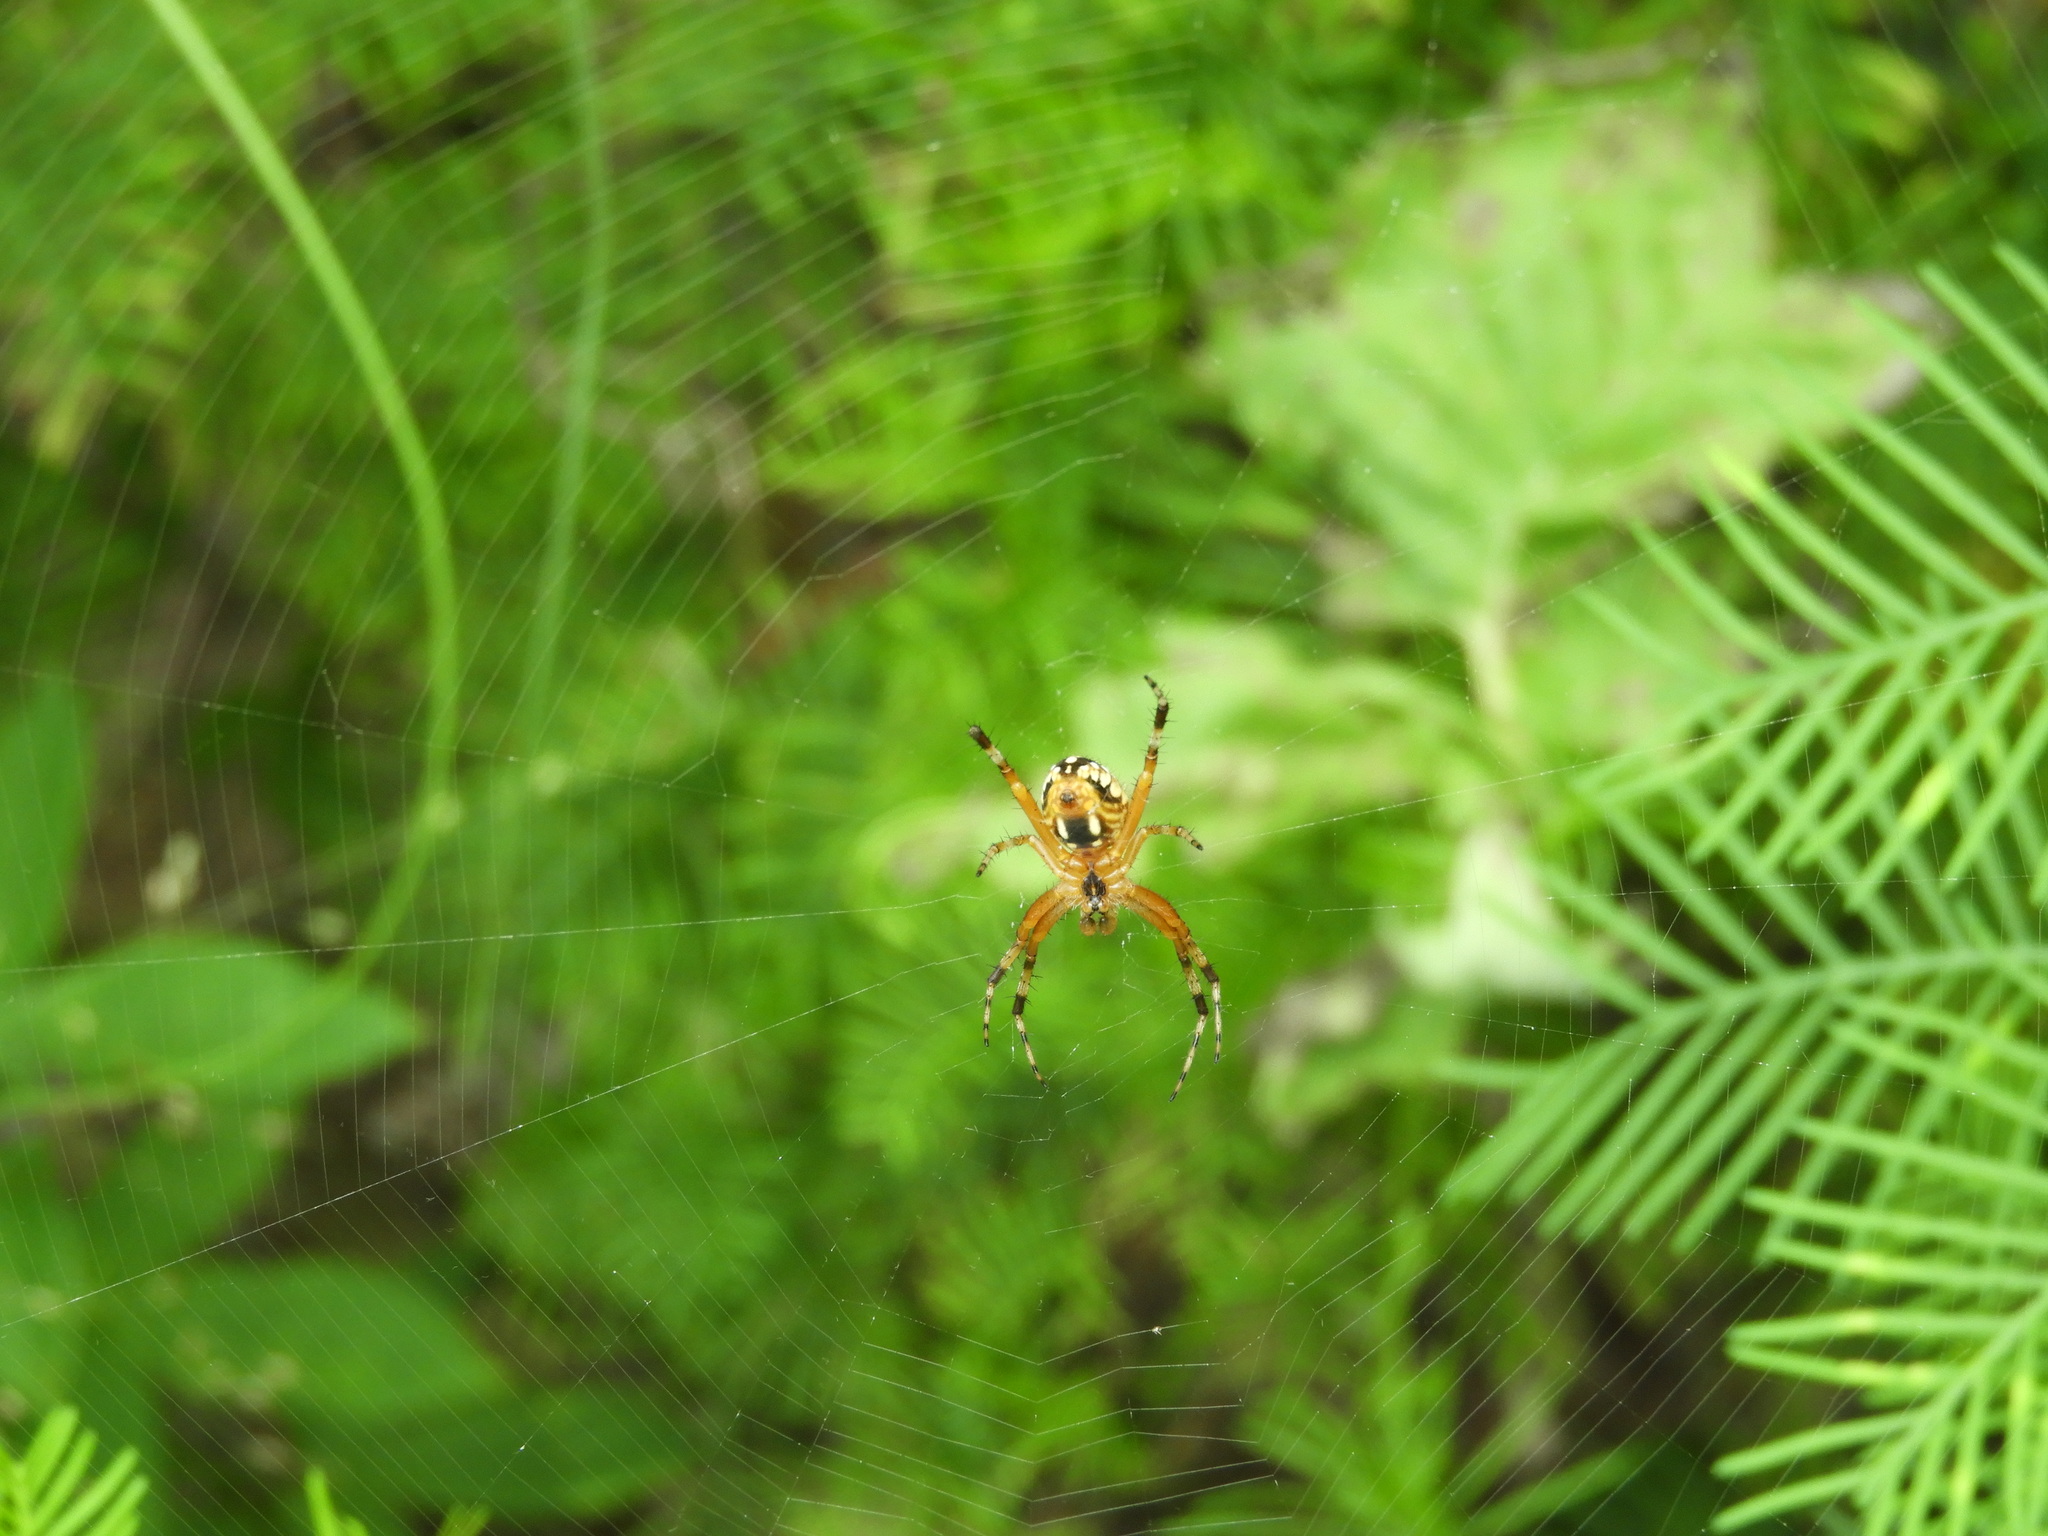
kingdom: Animalia
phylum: Arthropoda
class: Arachnida
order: Araneae
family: Araneidae
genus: Neoscona
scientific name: Neoscona
